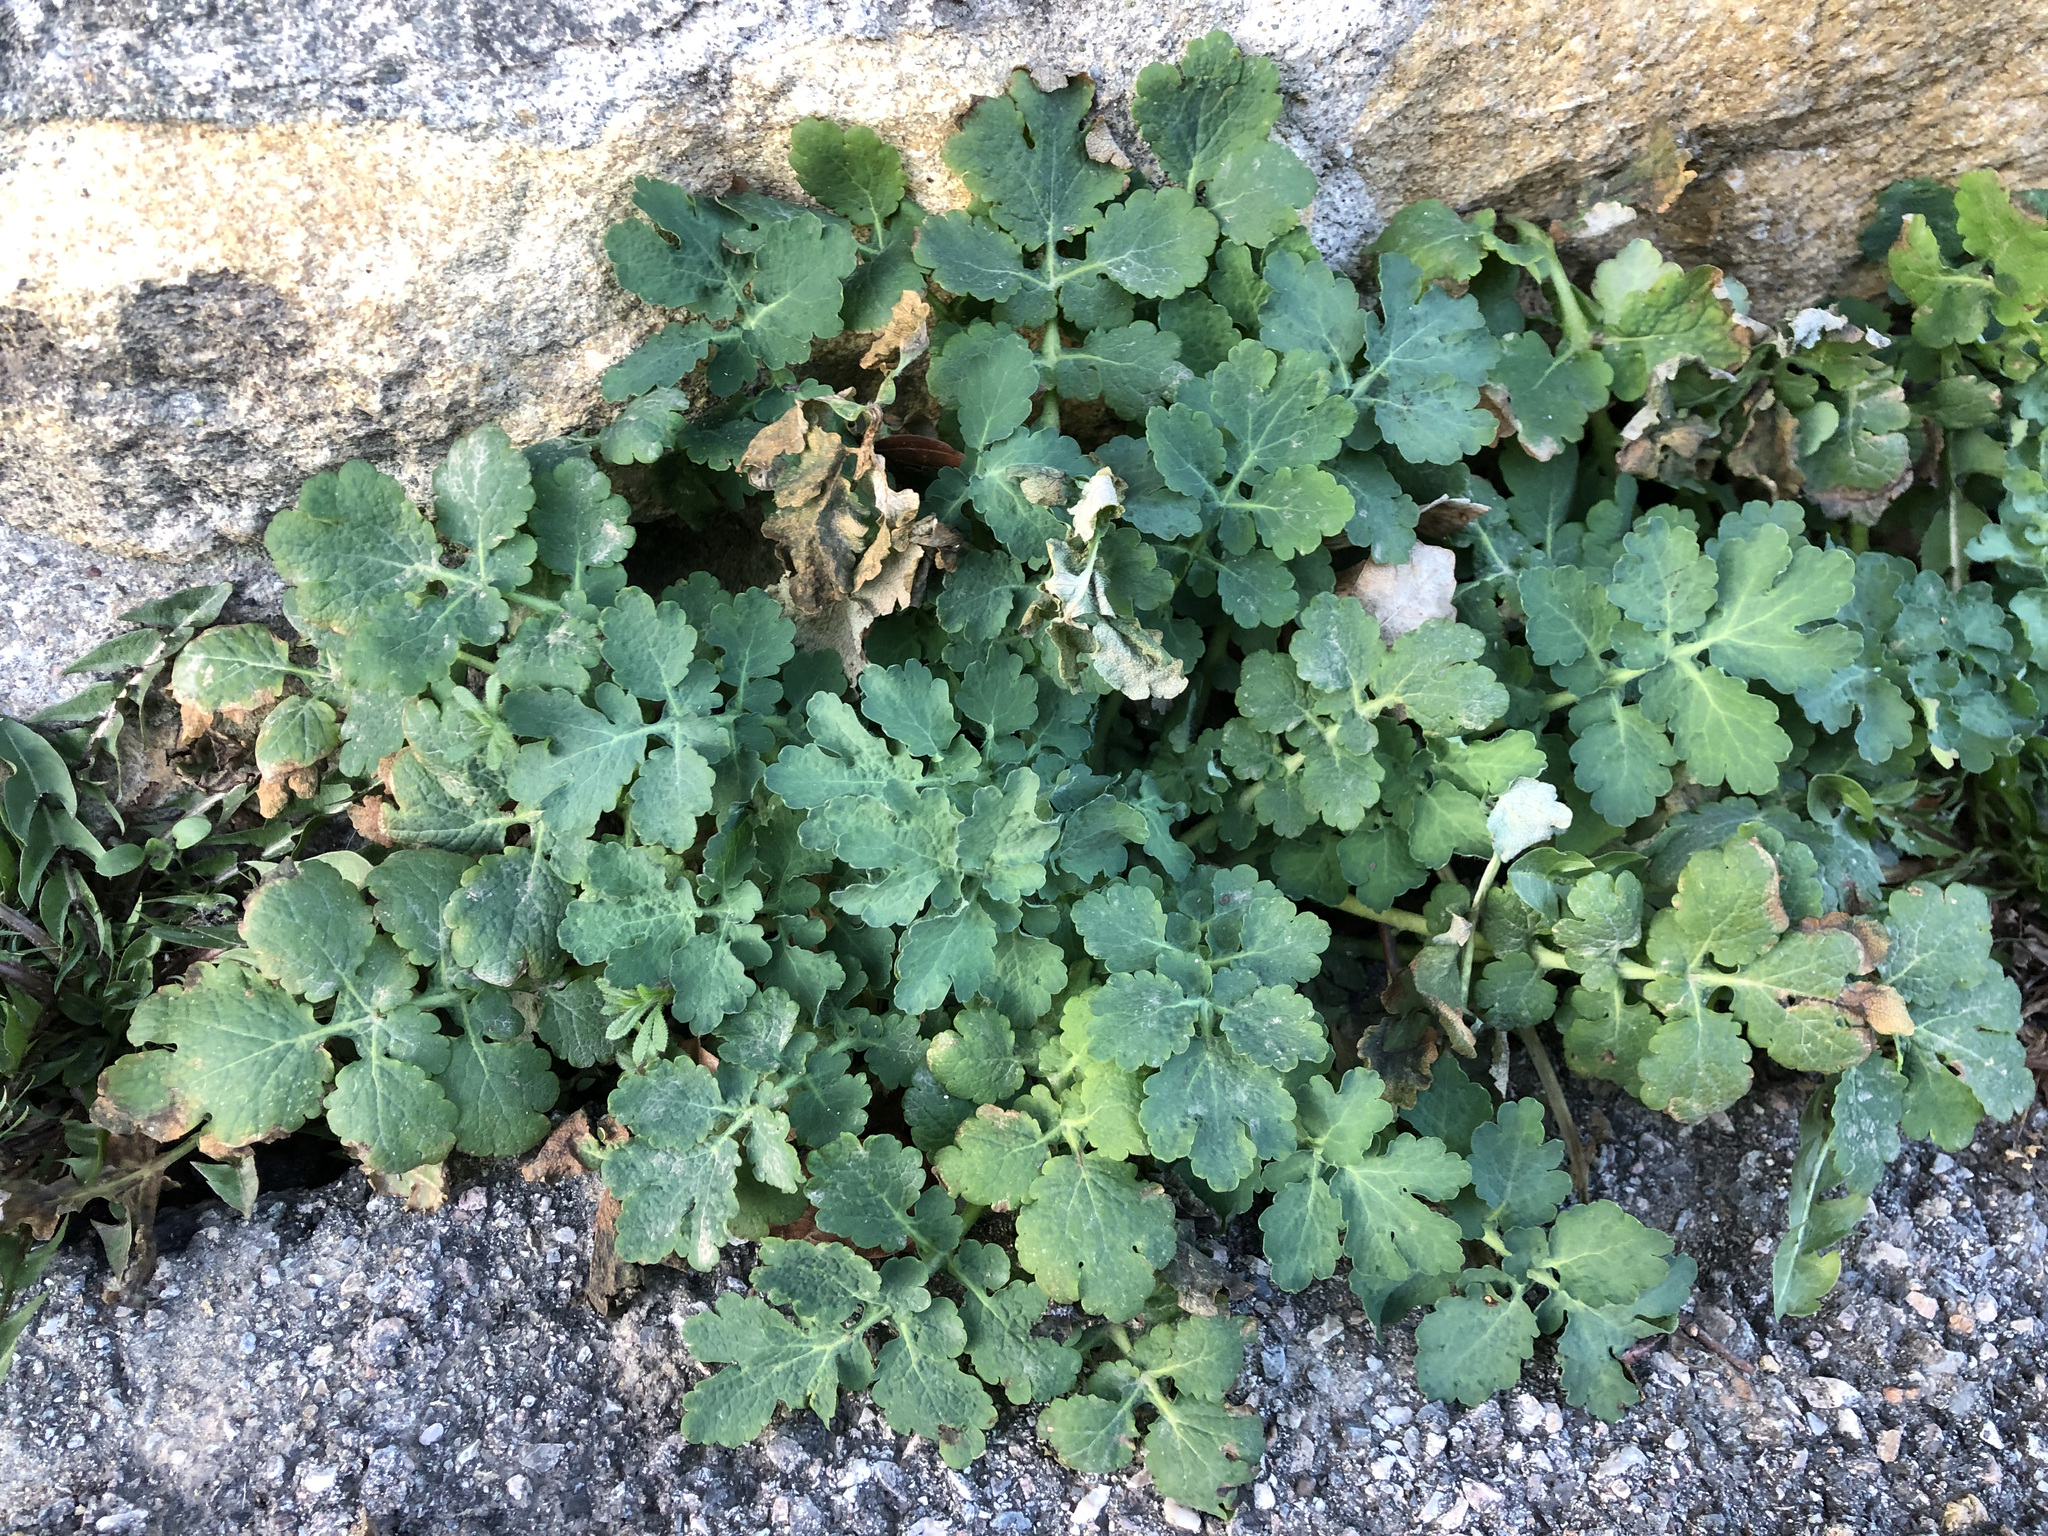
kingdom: Plantae
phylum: Tracheophyta
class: Magnoliopsida
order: Ranunculales
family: Papaveraceae
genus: Chelidonium
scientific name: Chelidonium majus
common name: Greater celandine
